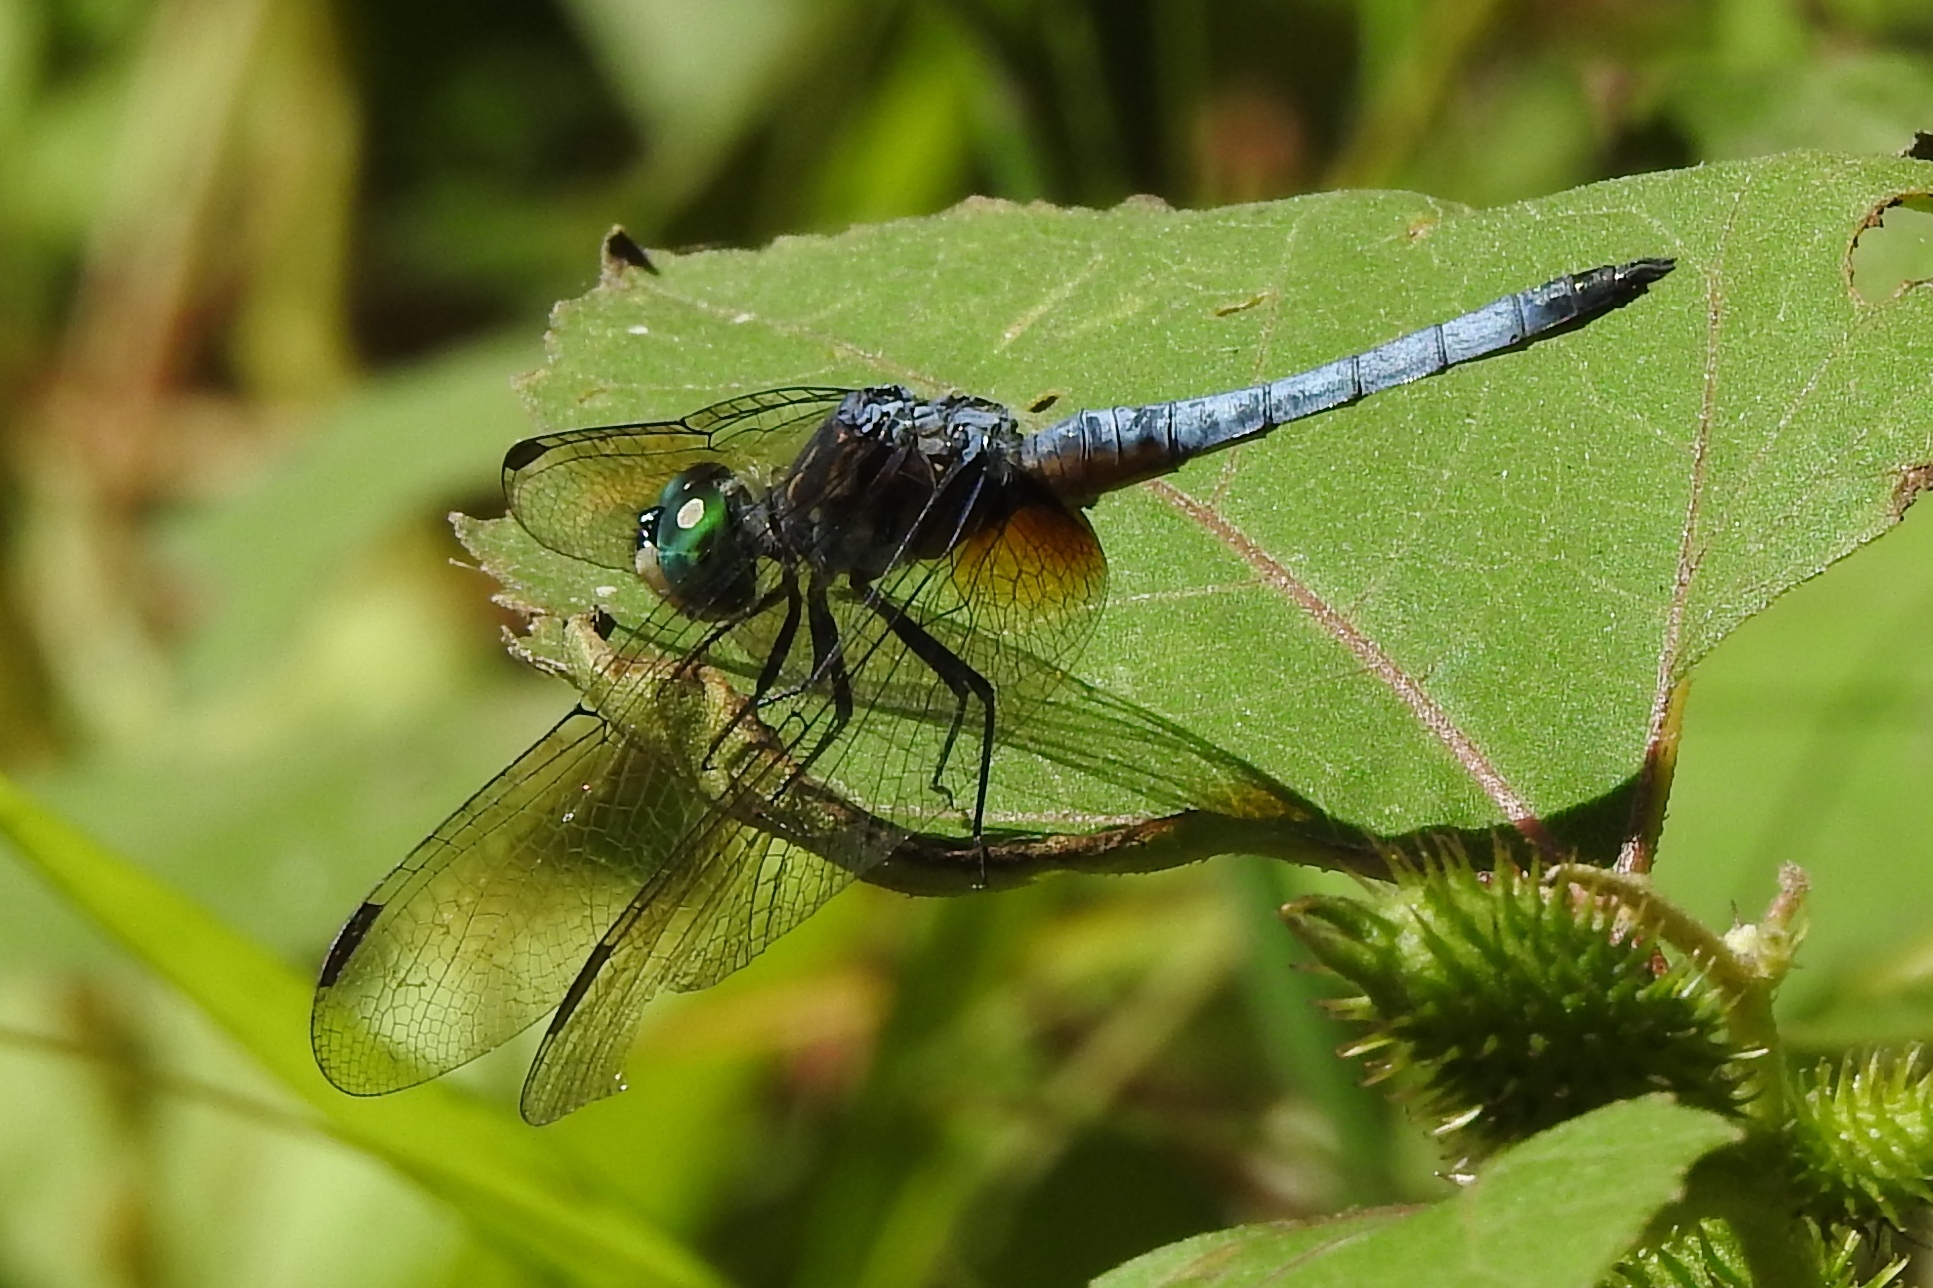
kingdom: Animalia
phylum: Arthropoda
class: Insecta
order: Odonata
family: Libellulidae
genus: Pachydiplax
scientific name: Pachydiplax longipennis
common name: Blue dasher
